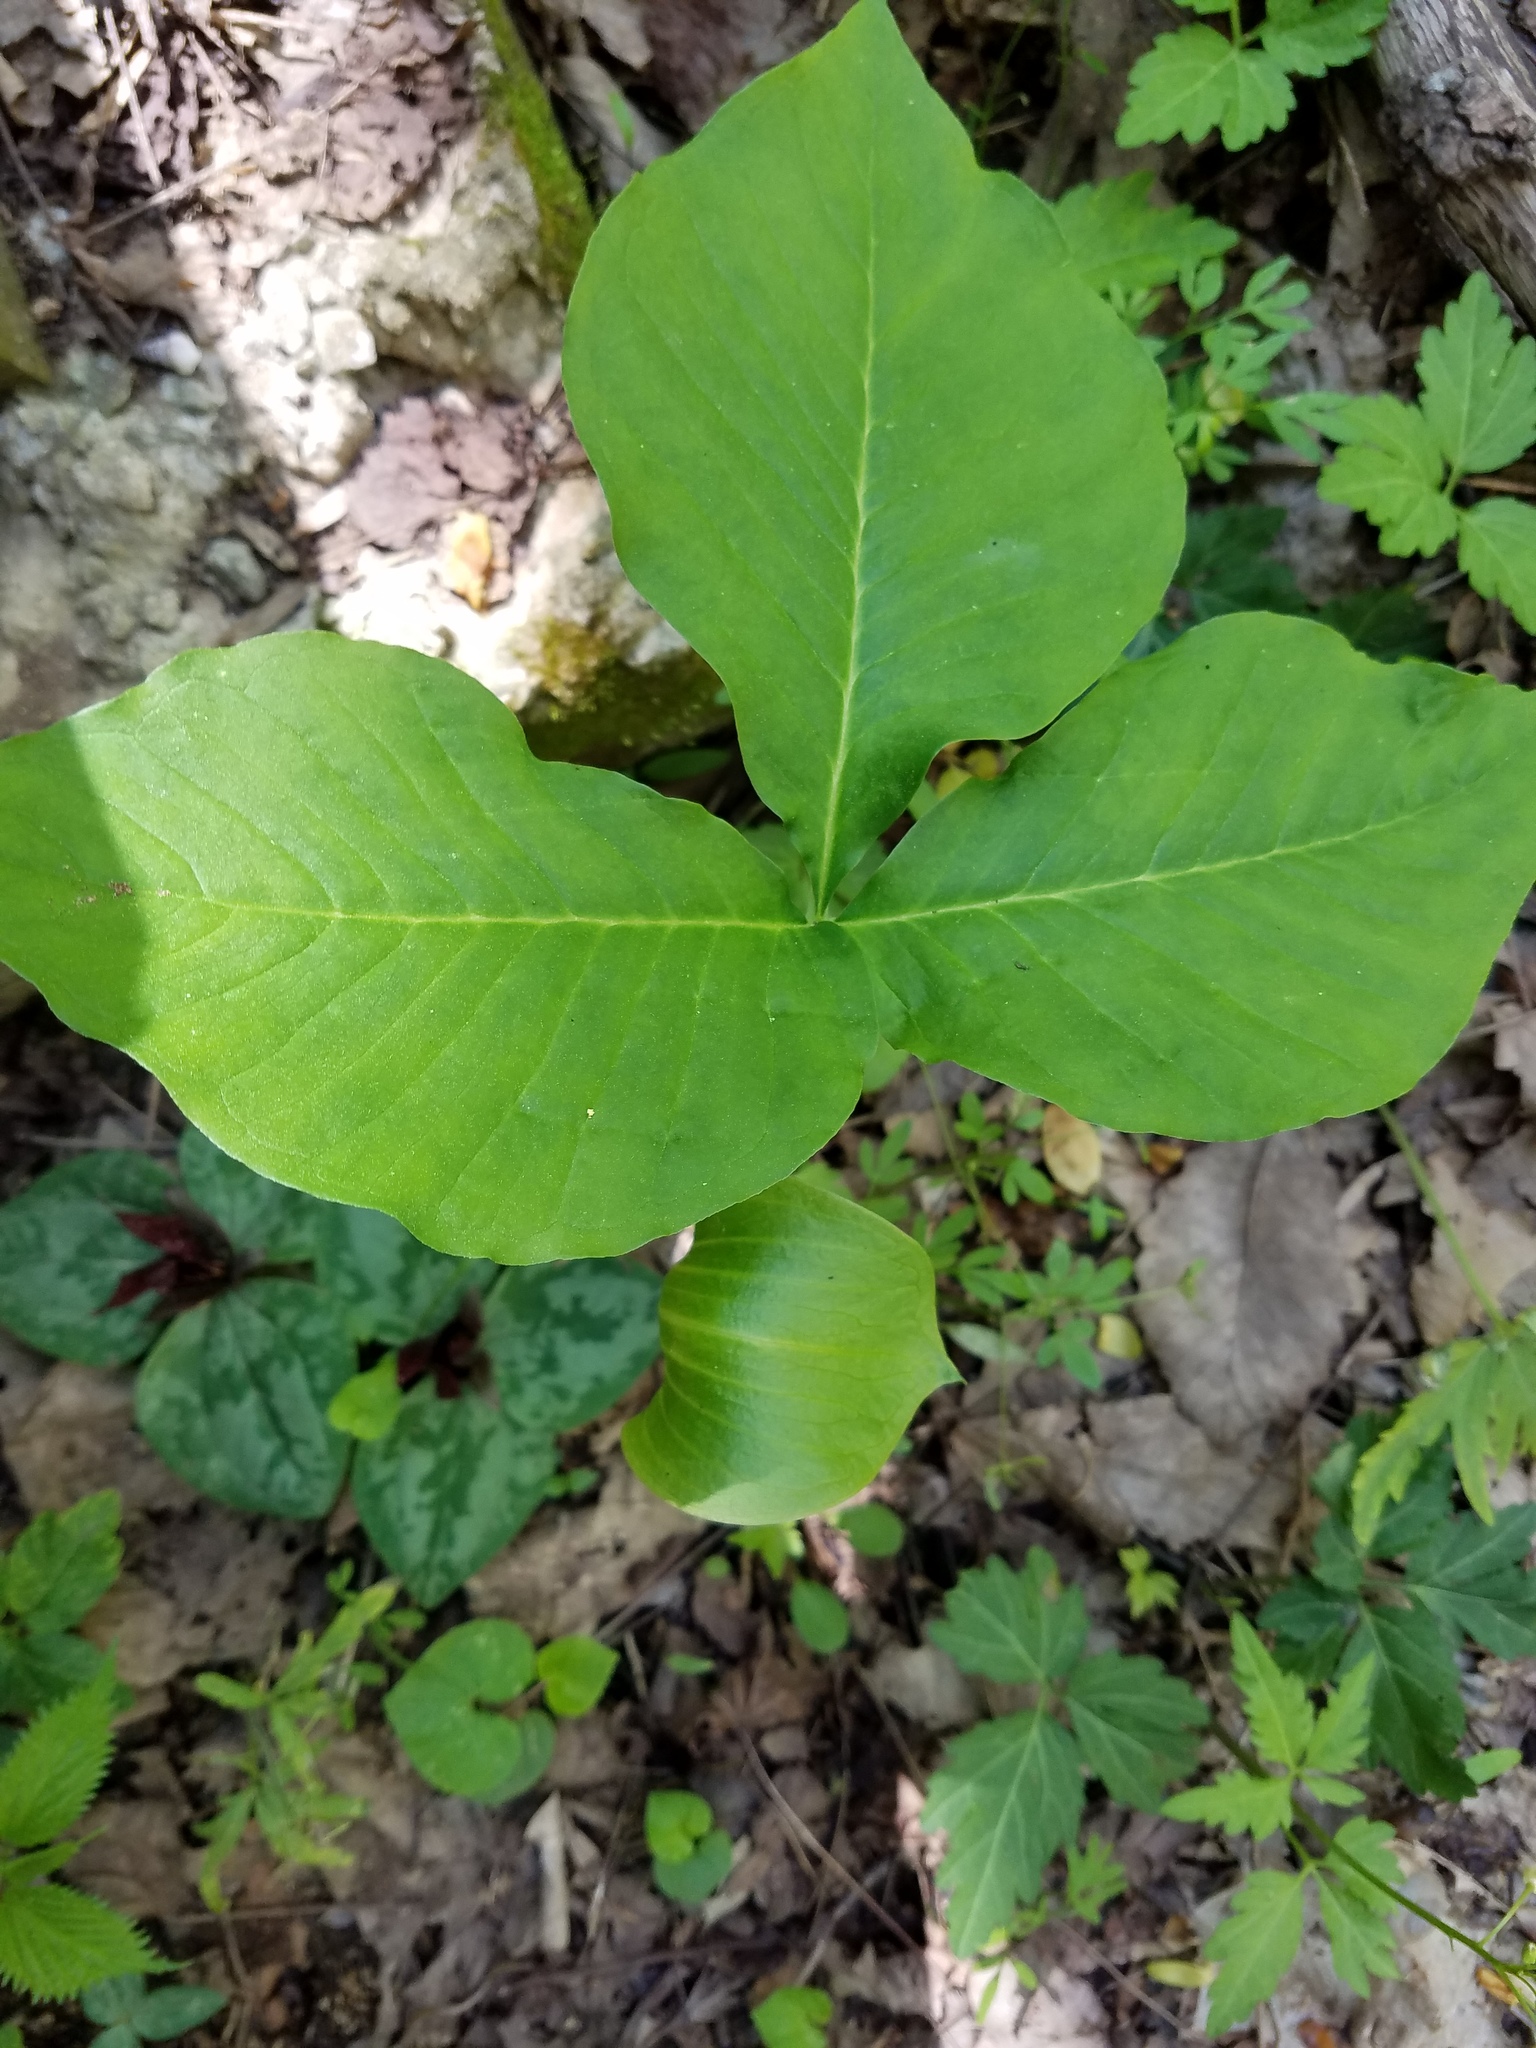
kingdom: Plantae
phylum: Tracheophyta
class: Liliopsida
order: Alismatales
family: Araceae
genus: Arisaema
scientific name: Arisaema triphyllum
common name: Jack-in-the-pulpit
